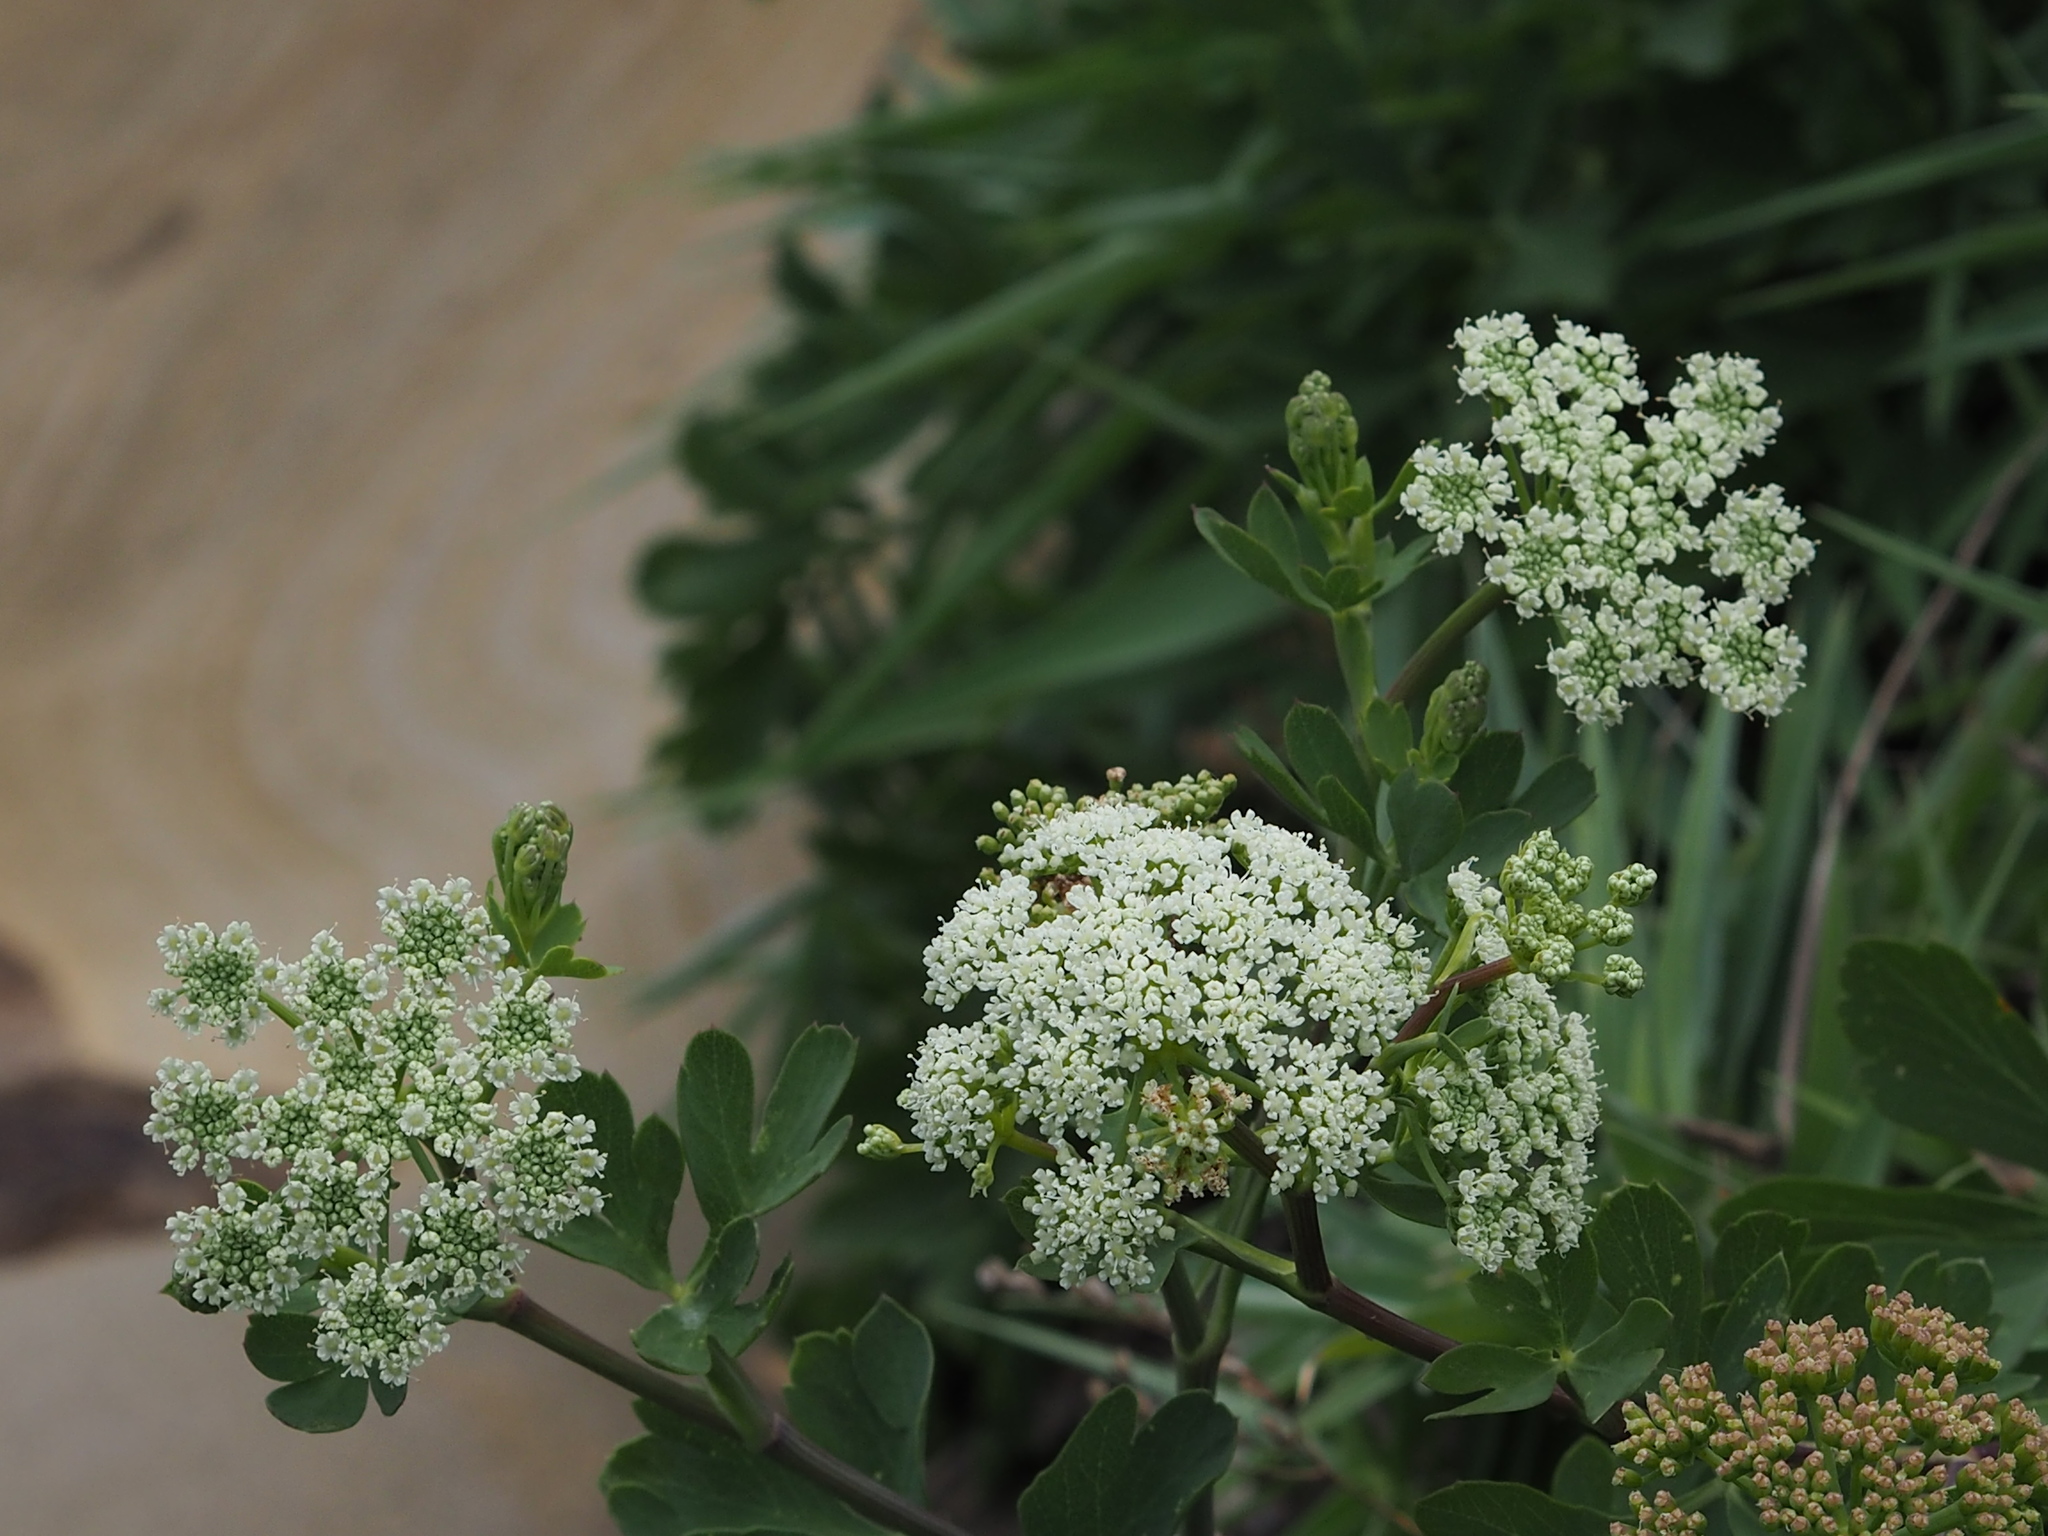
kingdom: Plantae
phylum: Tracheophyta
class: Magnoliopsida
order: Apiales
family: Apiaceae
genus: Peucedanum
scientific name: Peucedanum japonicum
